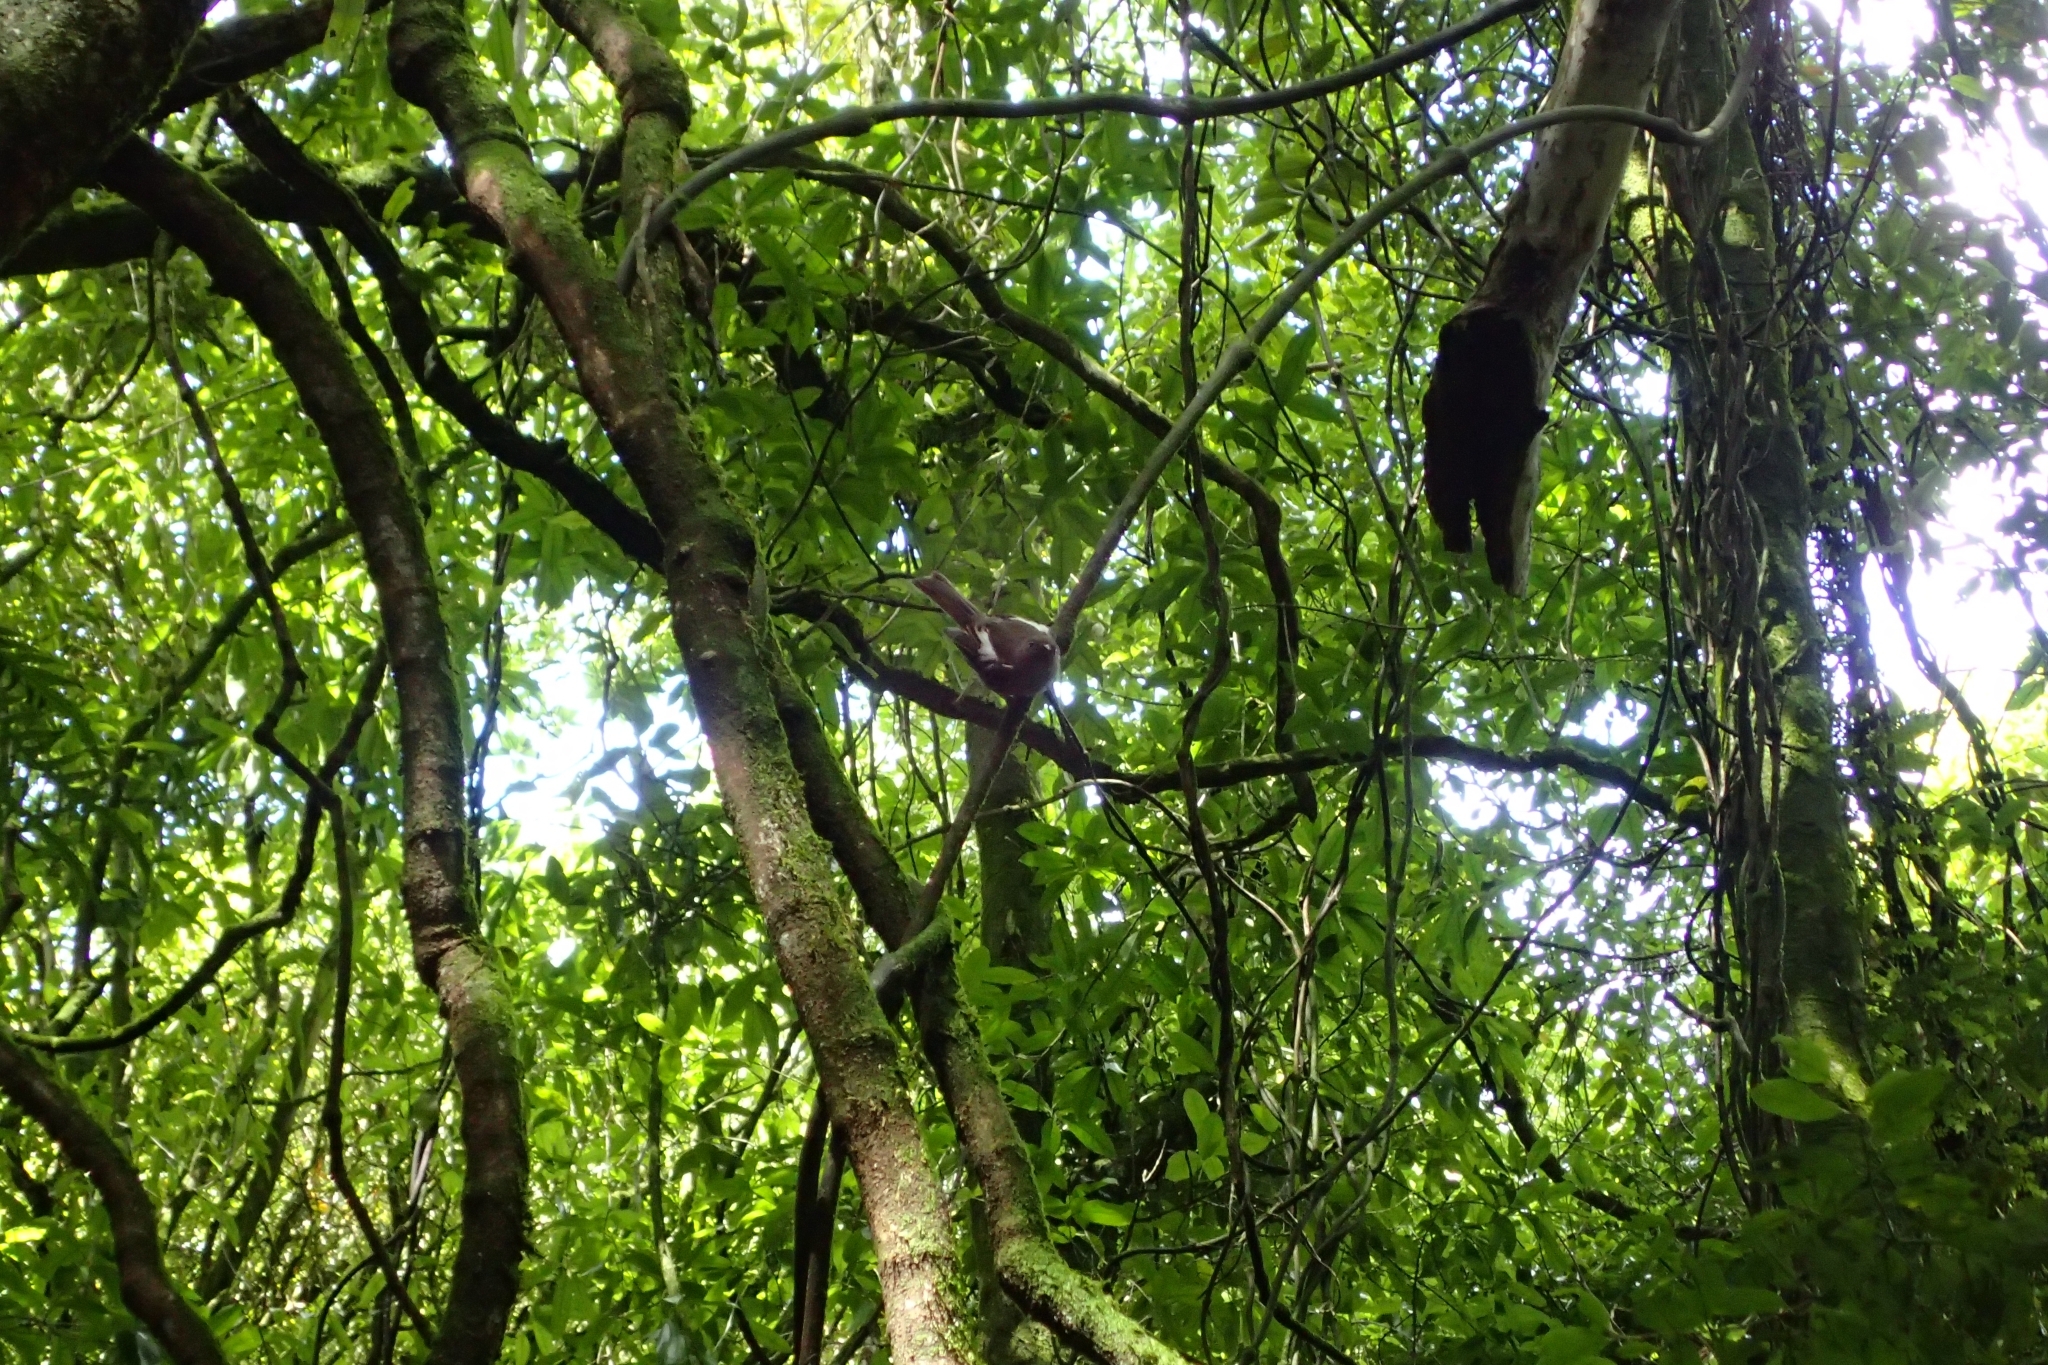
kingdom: Animalia
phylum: Chordata
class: Aves
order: Passeriformes
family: Notiomystidae
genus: Notiomystis
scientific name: Notiomystis cincta
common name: Stitchbird
